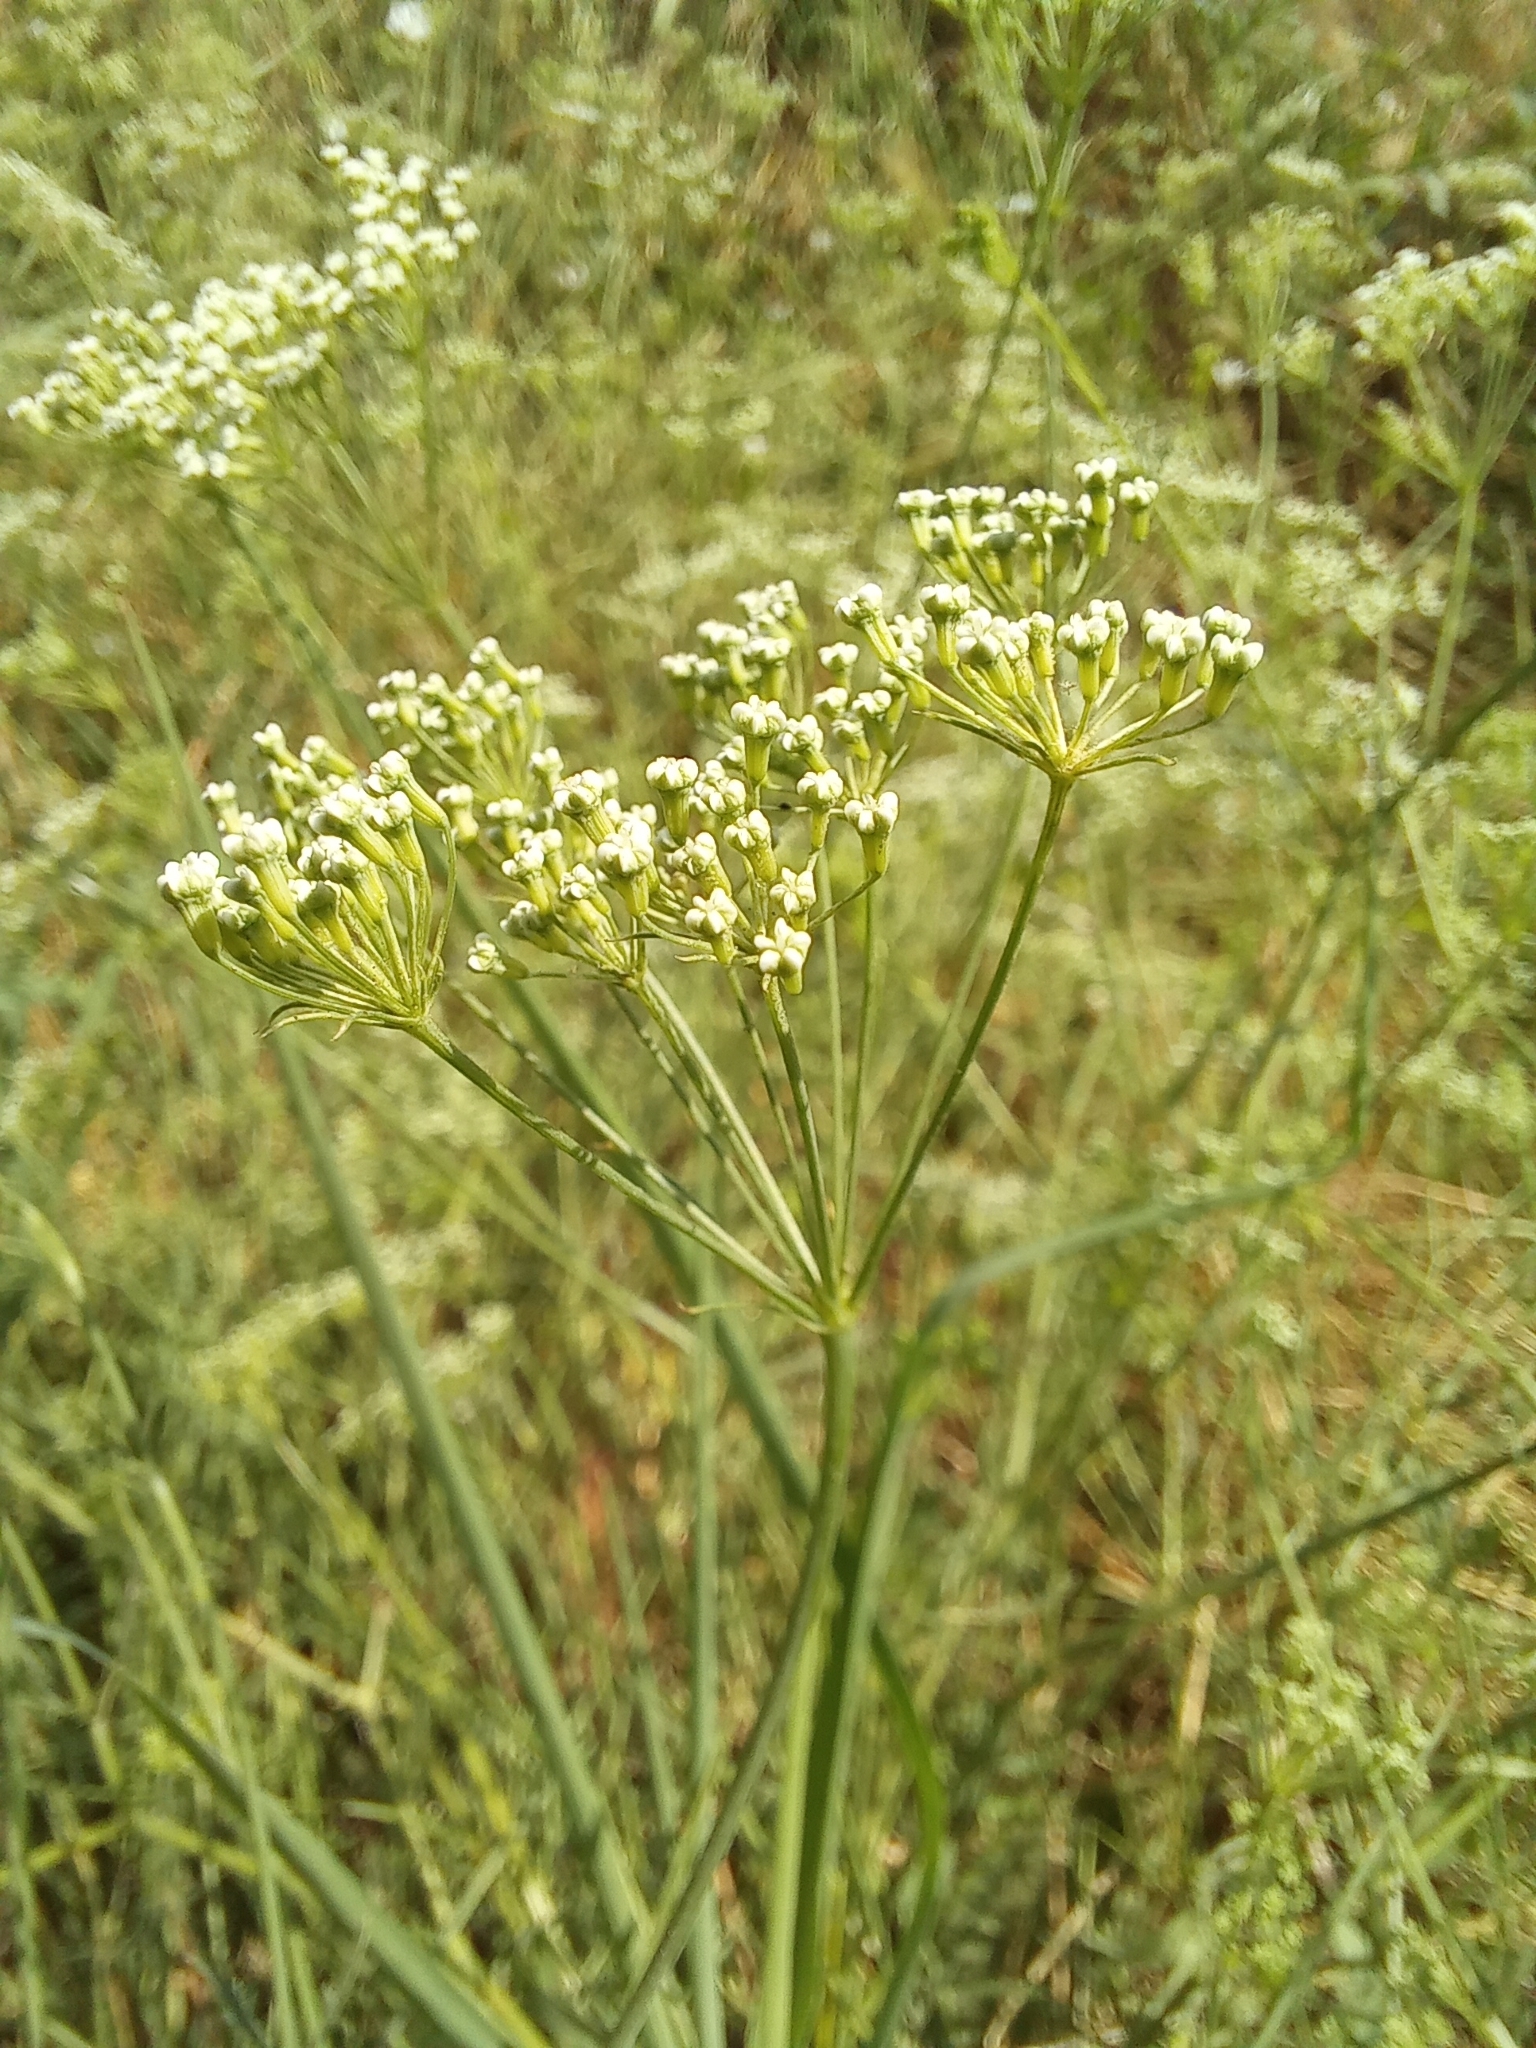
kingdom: Plantae
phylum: Tracheophyta
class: Magnoliopsida
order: Apiales
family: Apiaceae
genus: Falcaria
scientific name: Falcaria vulgaris
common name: Longleaf
